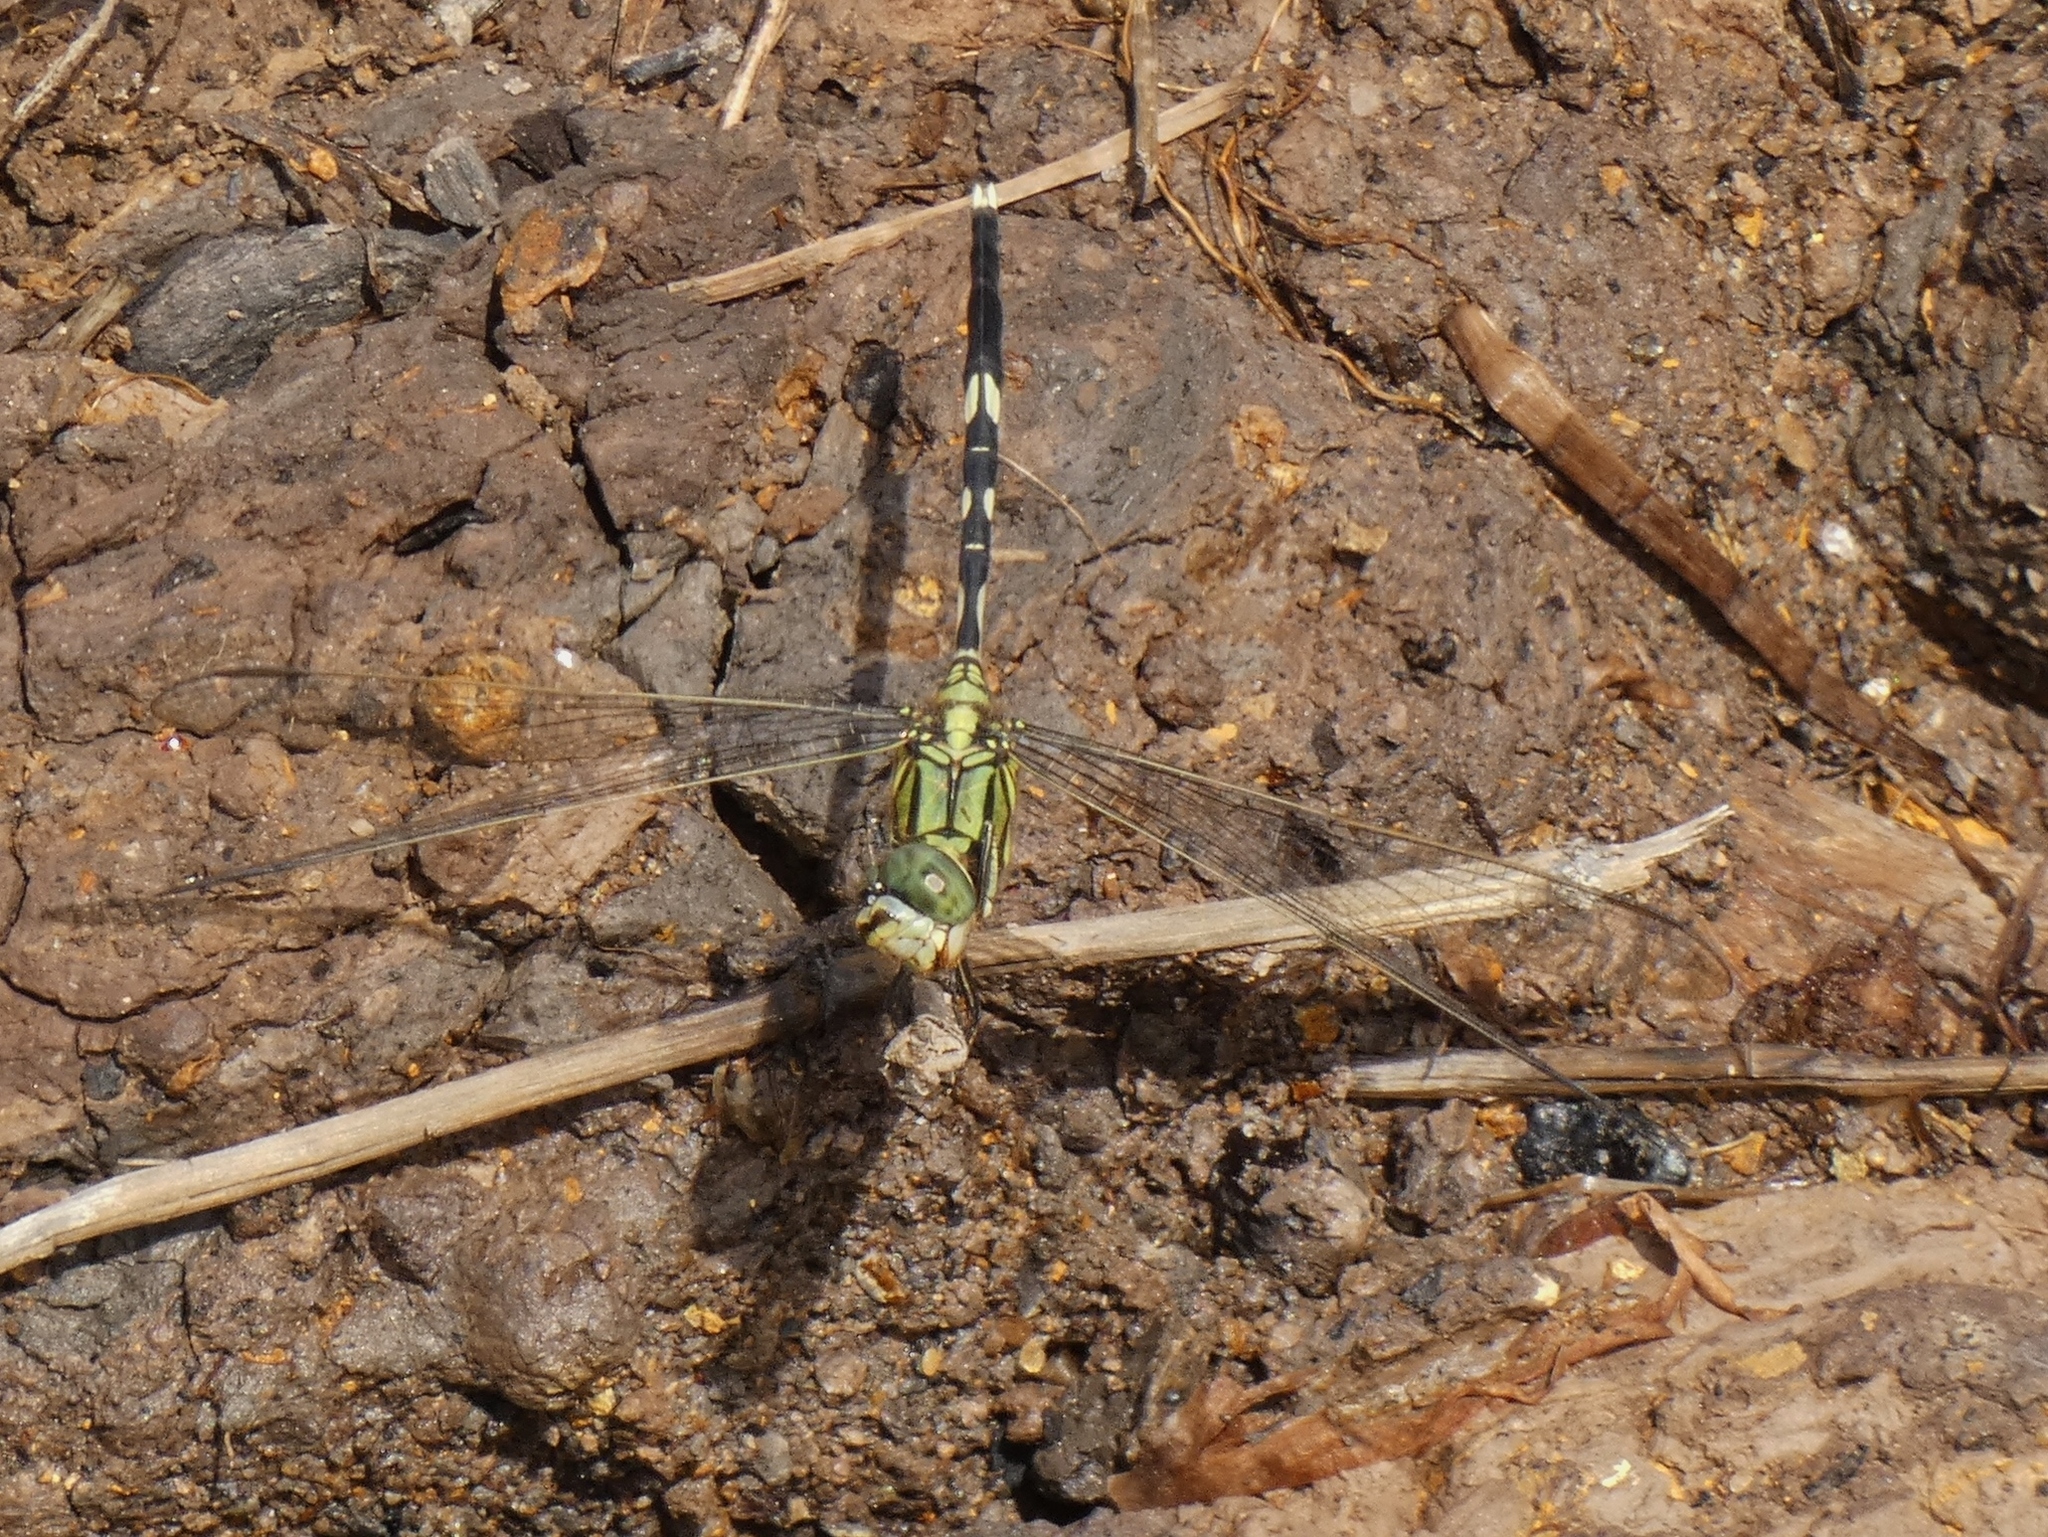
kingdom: Animalia
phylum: Arthropoda
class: Insecta
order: Odonata
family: Libellulidae
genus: Orthetrum
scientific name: Orthetrum sabina
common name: Slender skimmer
